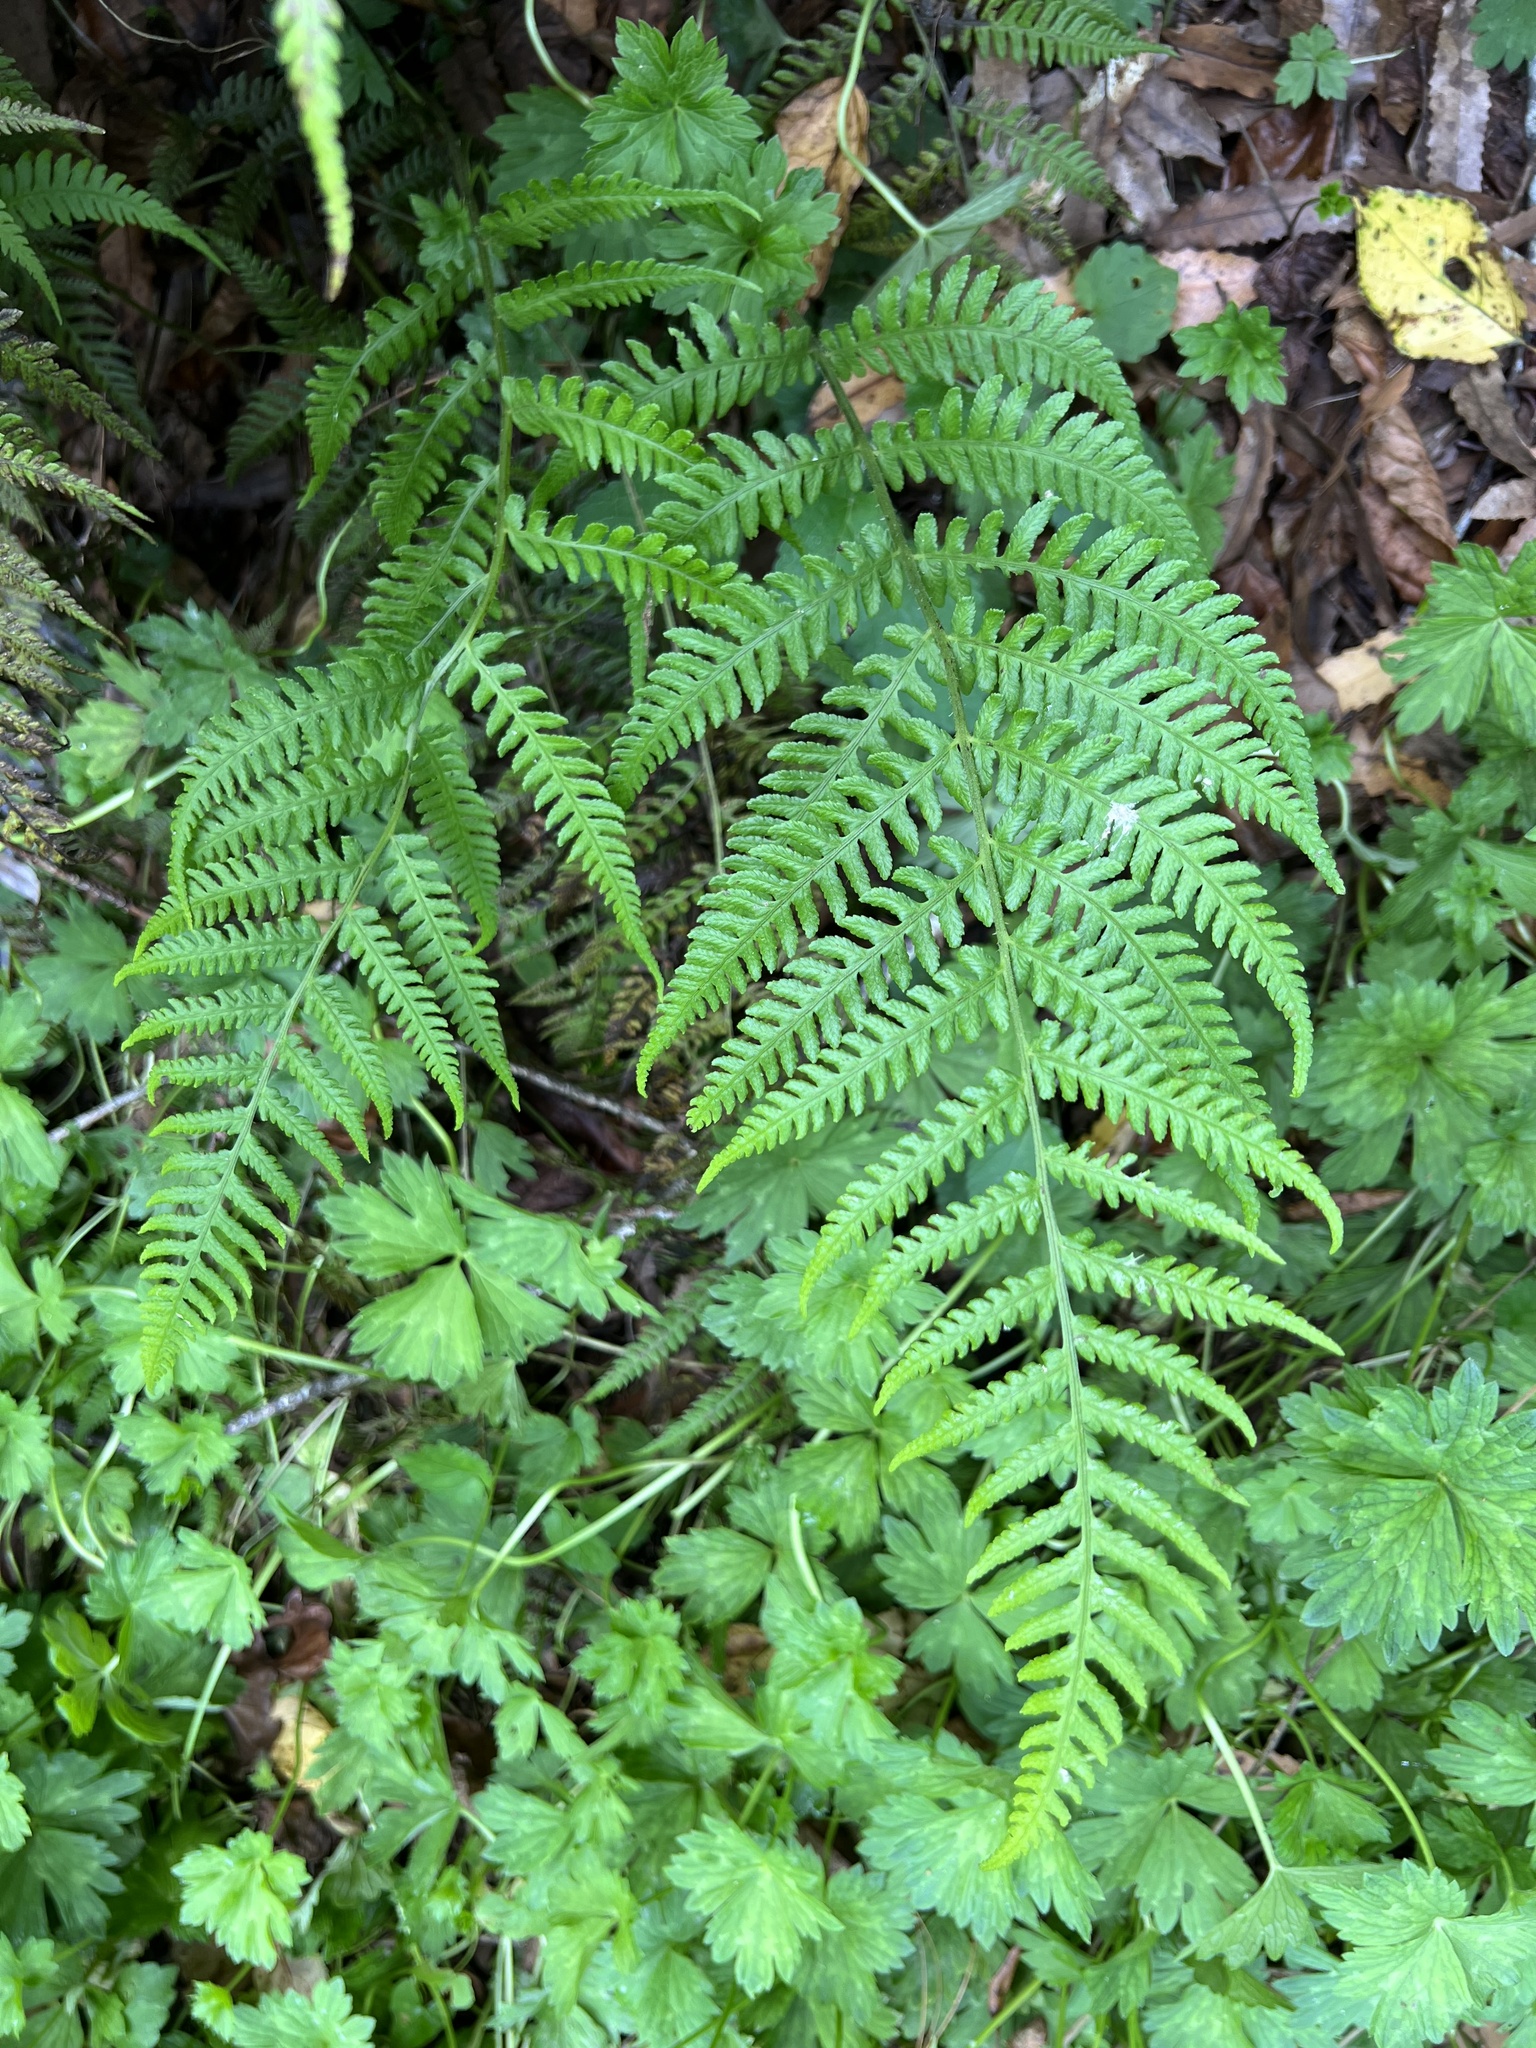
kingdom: Plantae
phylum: Tracheophyta
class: Polypodiopsida
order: Polypodiales
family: Athyriaceae
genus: Deparia
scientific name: Deparia petersenii
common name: Japanese false spleenwort
